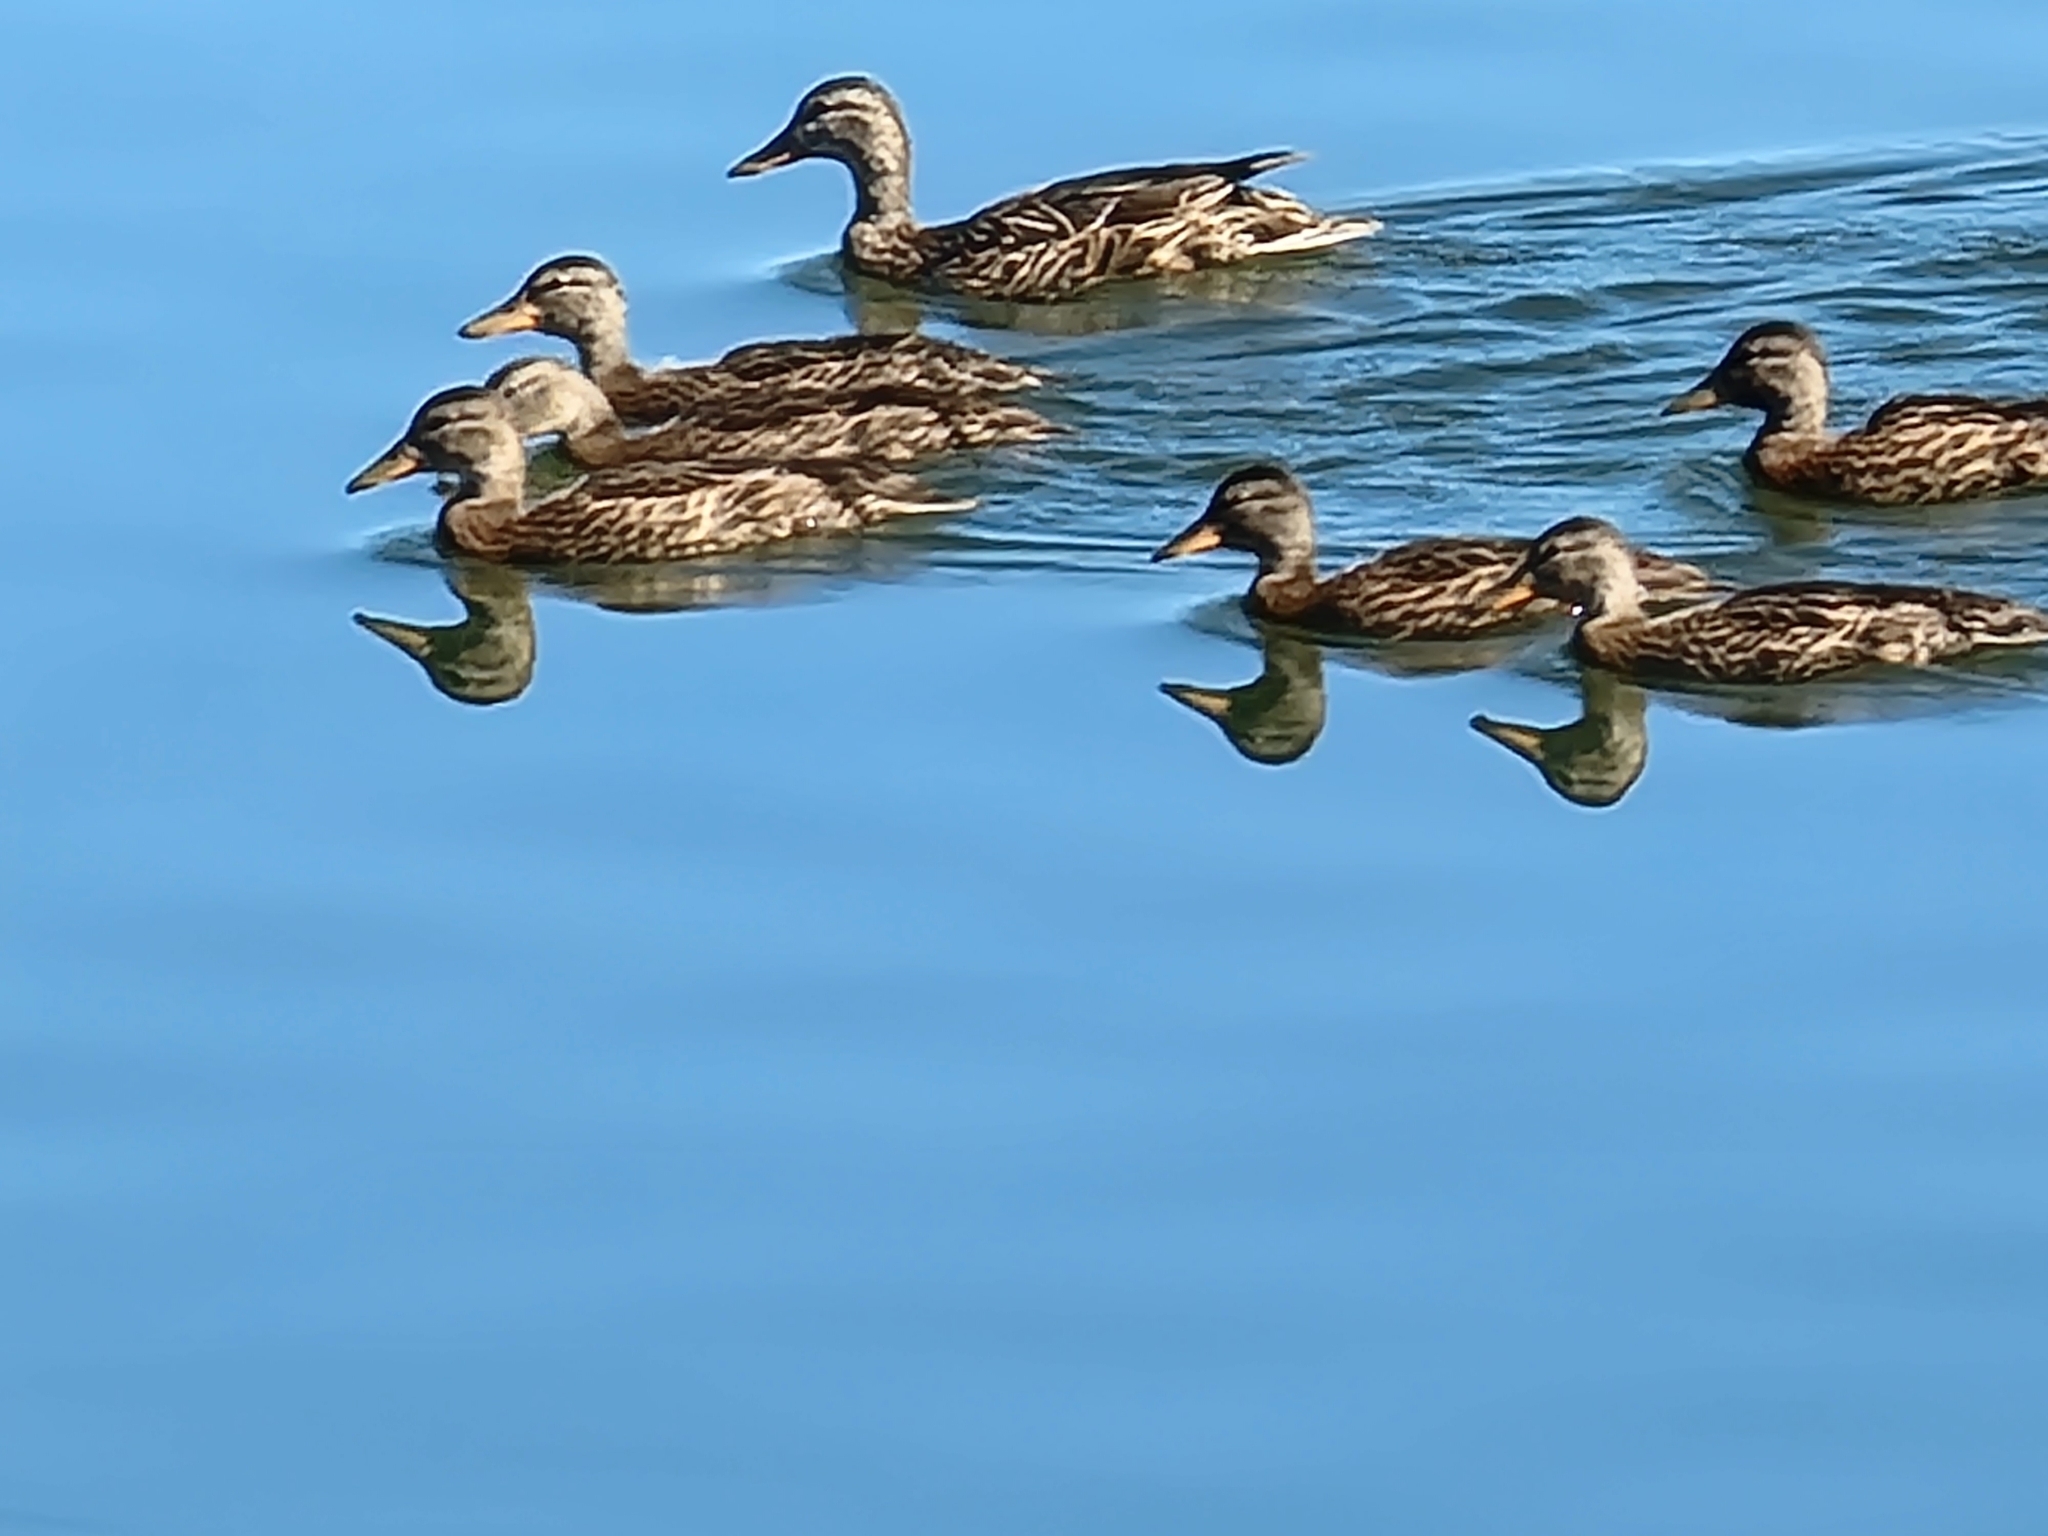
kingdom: Animalia
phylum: Chordata
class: Aves
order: Anseriformes
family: Anatidae
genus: Anas
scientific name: Anas platyrhynchos
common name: Mallard
